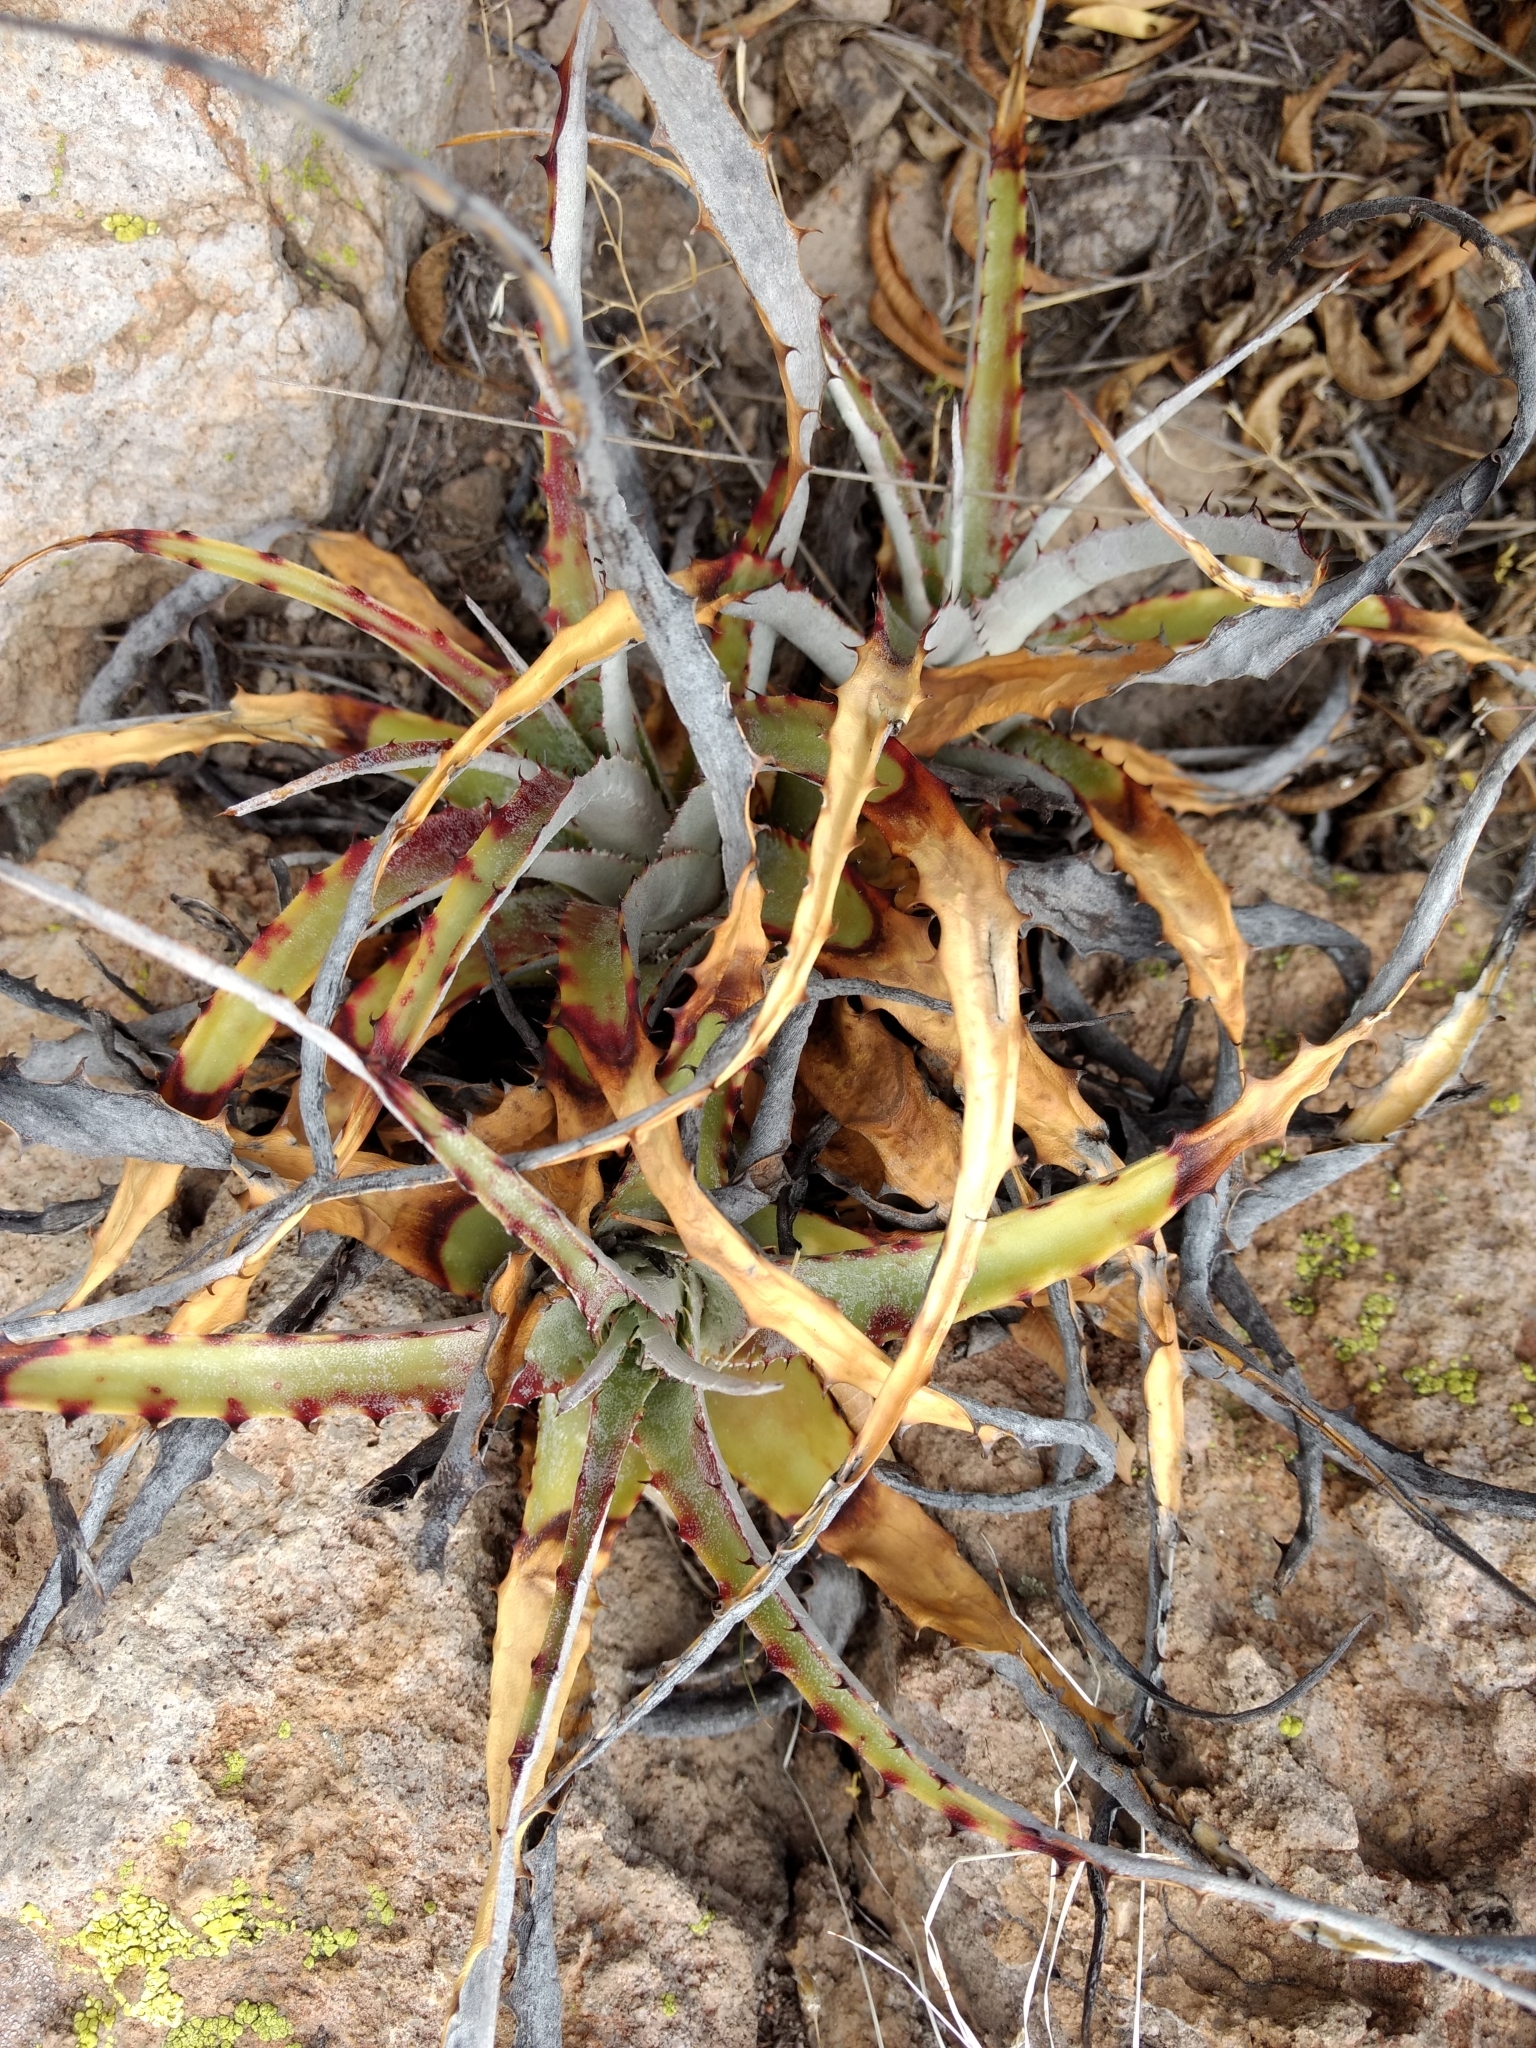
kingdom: Plantae
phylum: Tracheophyta
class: Liliopsida
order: Poales
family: Bromeliaceae
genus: Hechtia
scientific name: Hechtia glomerata
